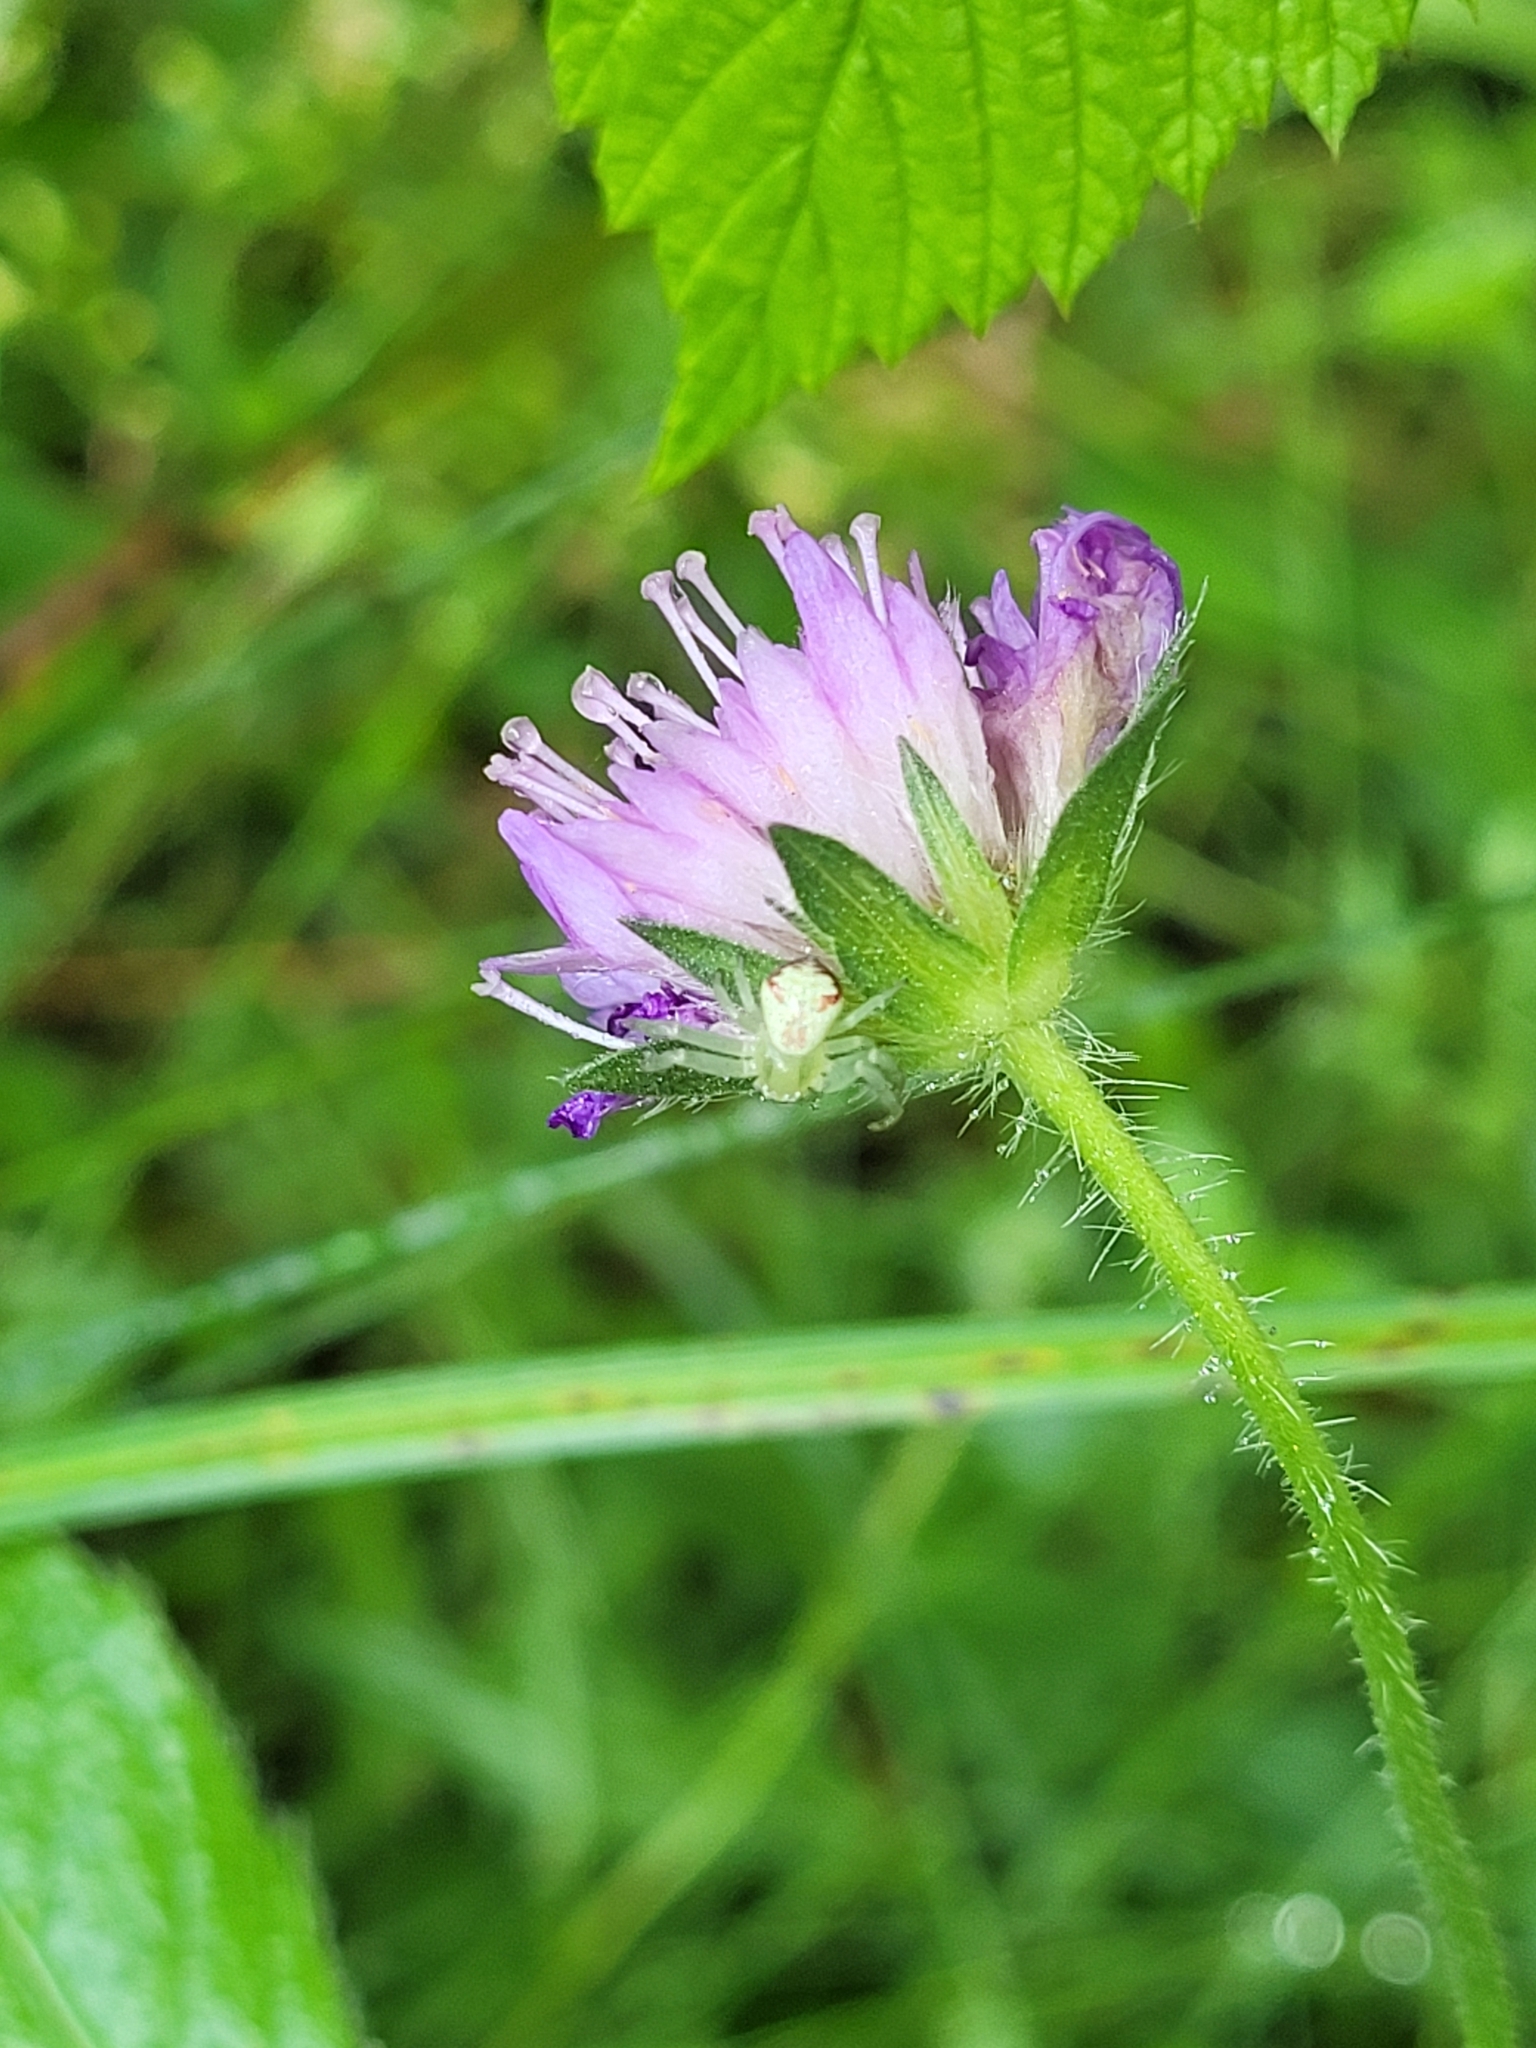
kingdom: Animalia
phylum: Arthropoda
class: Arachnida
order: Araneae
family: Thomisidae
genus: Ebrechtella
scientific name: Ebrechtella tricuspidata
